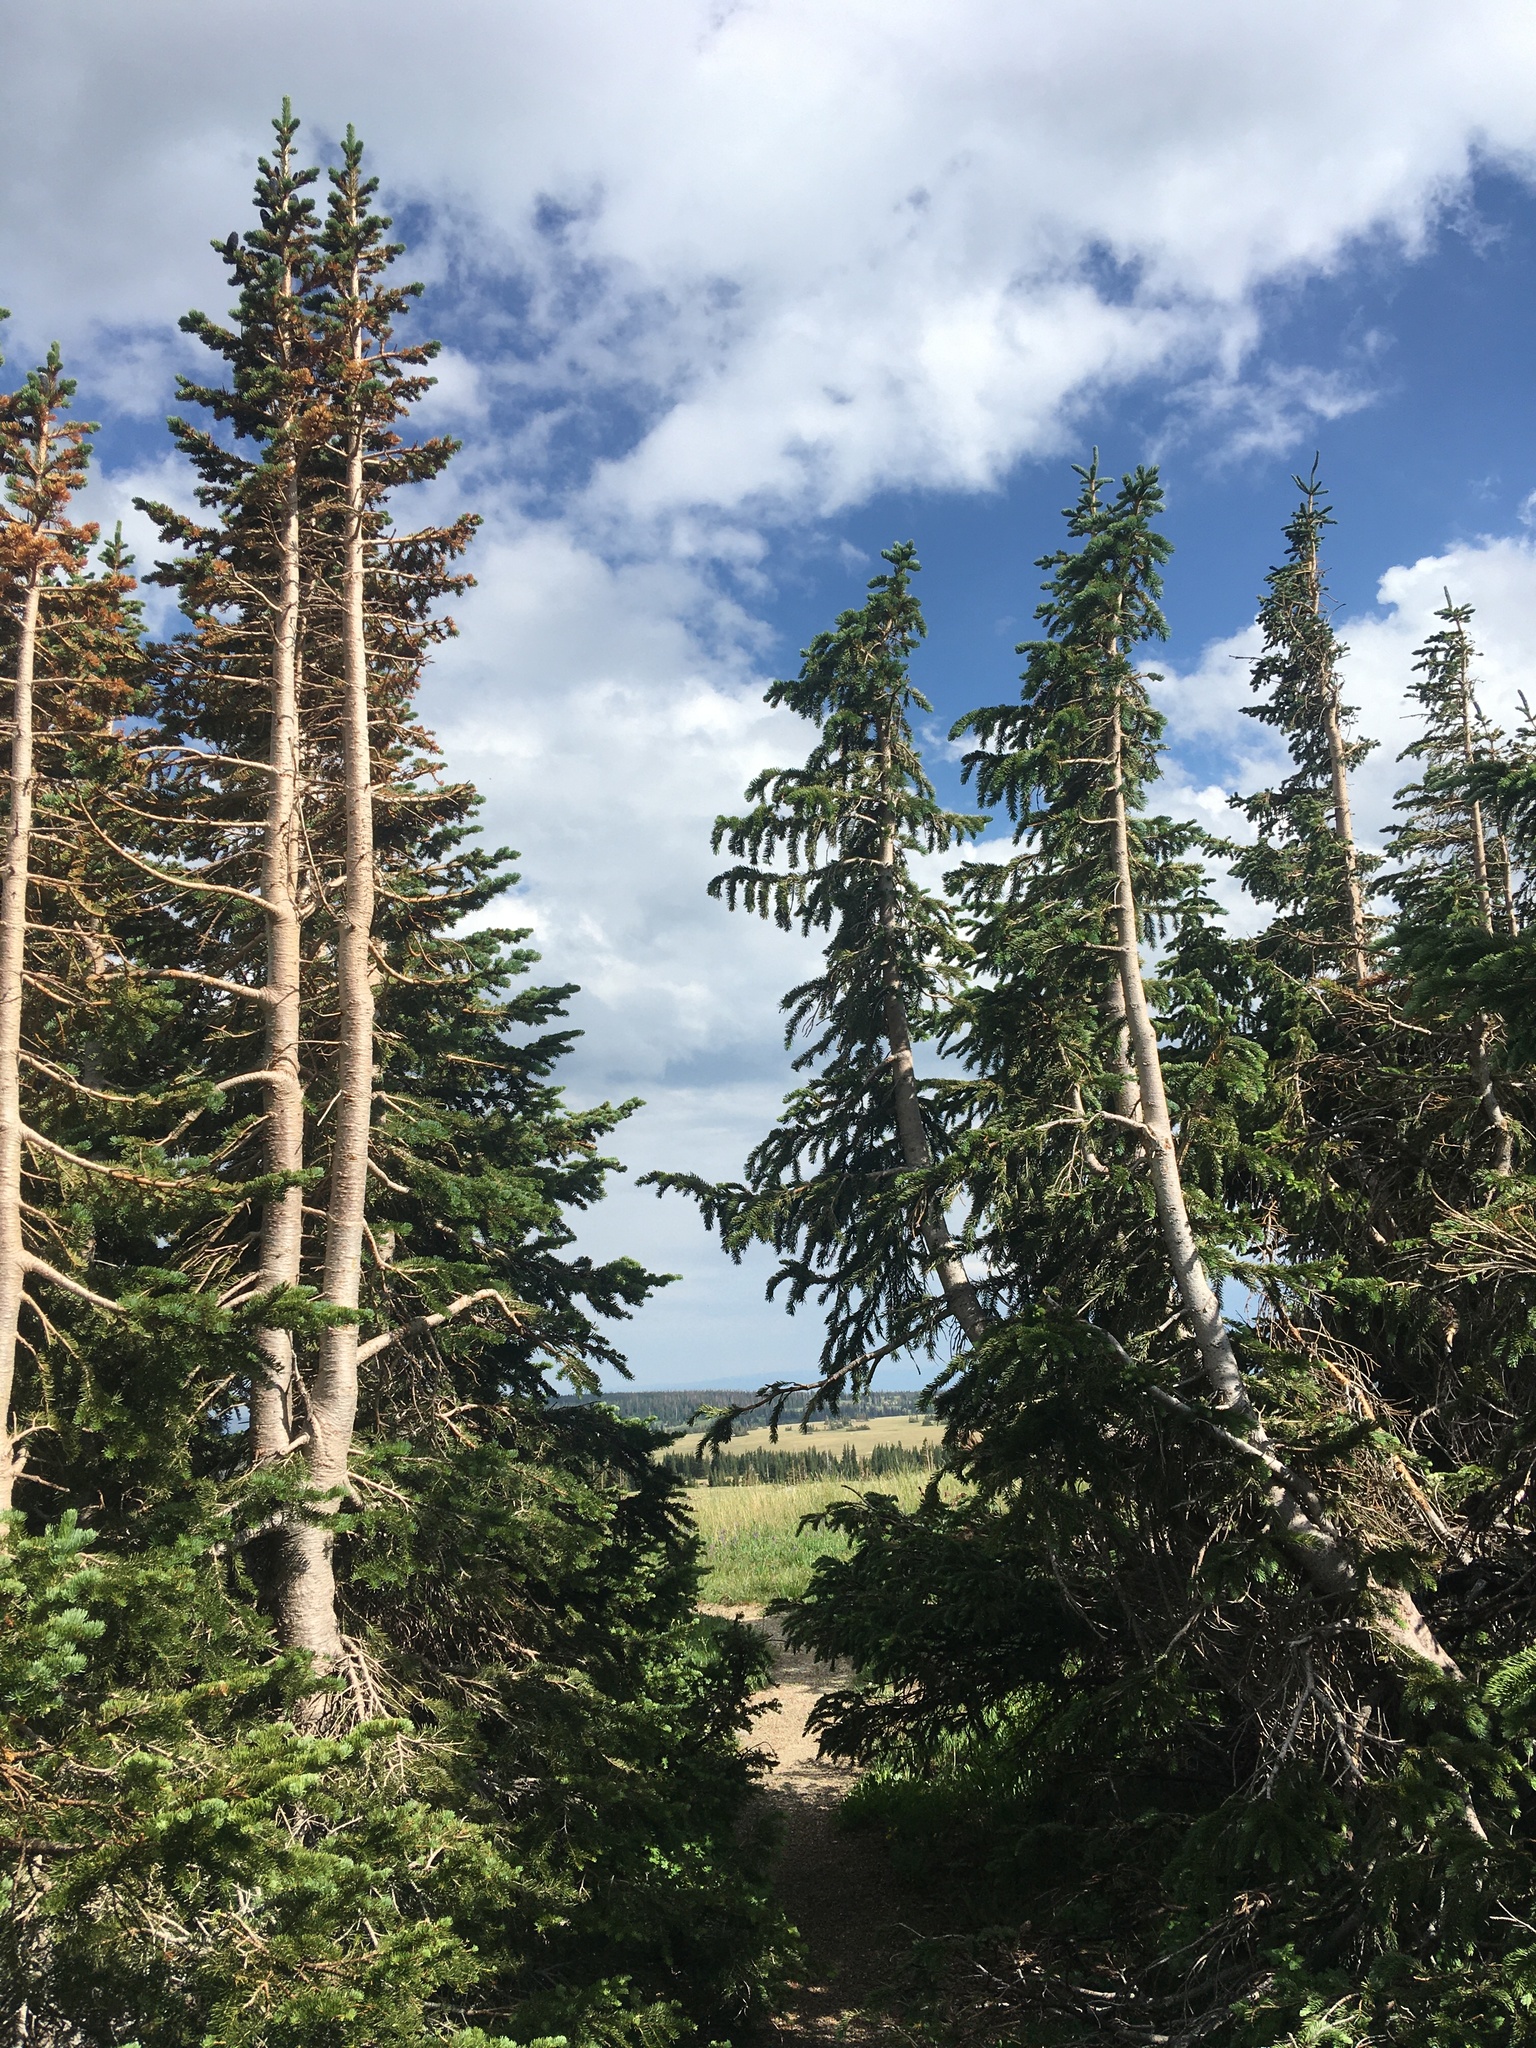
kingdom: Plantae
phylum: Tracheophyta
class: Pinopsida
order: Pinales
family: Pinaceae
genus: Abies
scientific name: Abies lasiocarpa
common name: Subalpine fir
